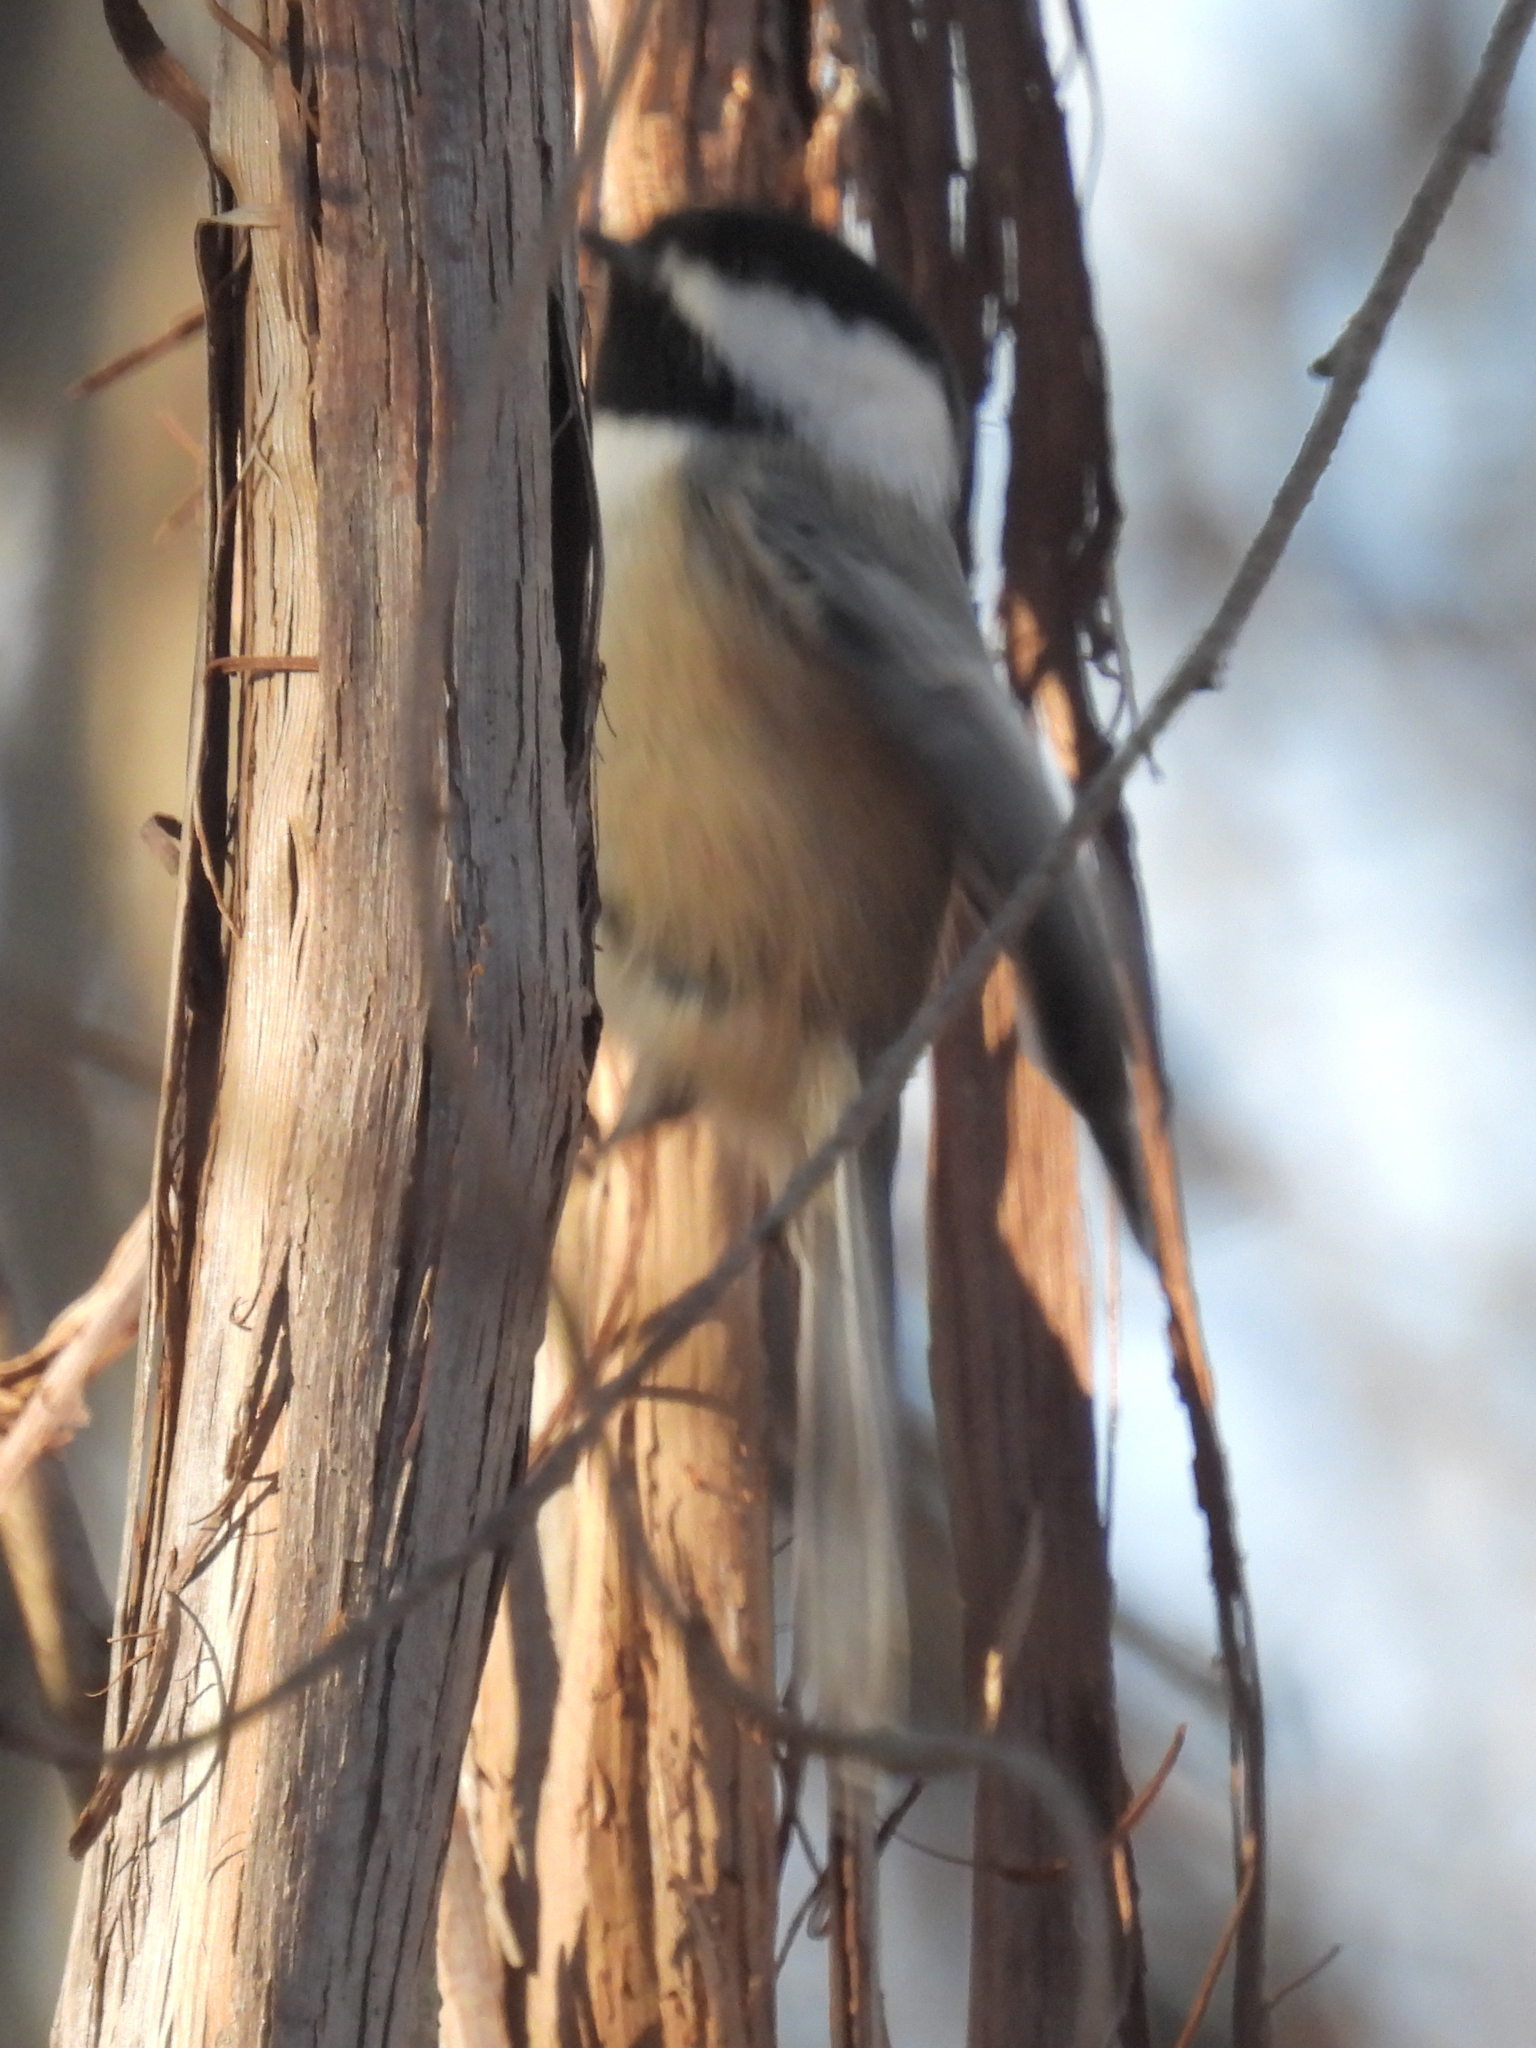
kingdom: Animalia
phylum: Chordata
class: Aves
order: Passeriformes
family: Paridae
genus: Poecile
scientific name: Poecile atricapillus
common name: Black-capped chickadee
